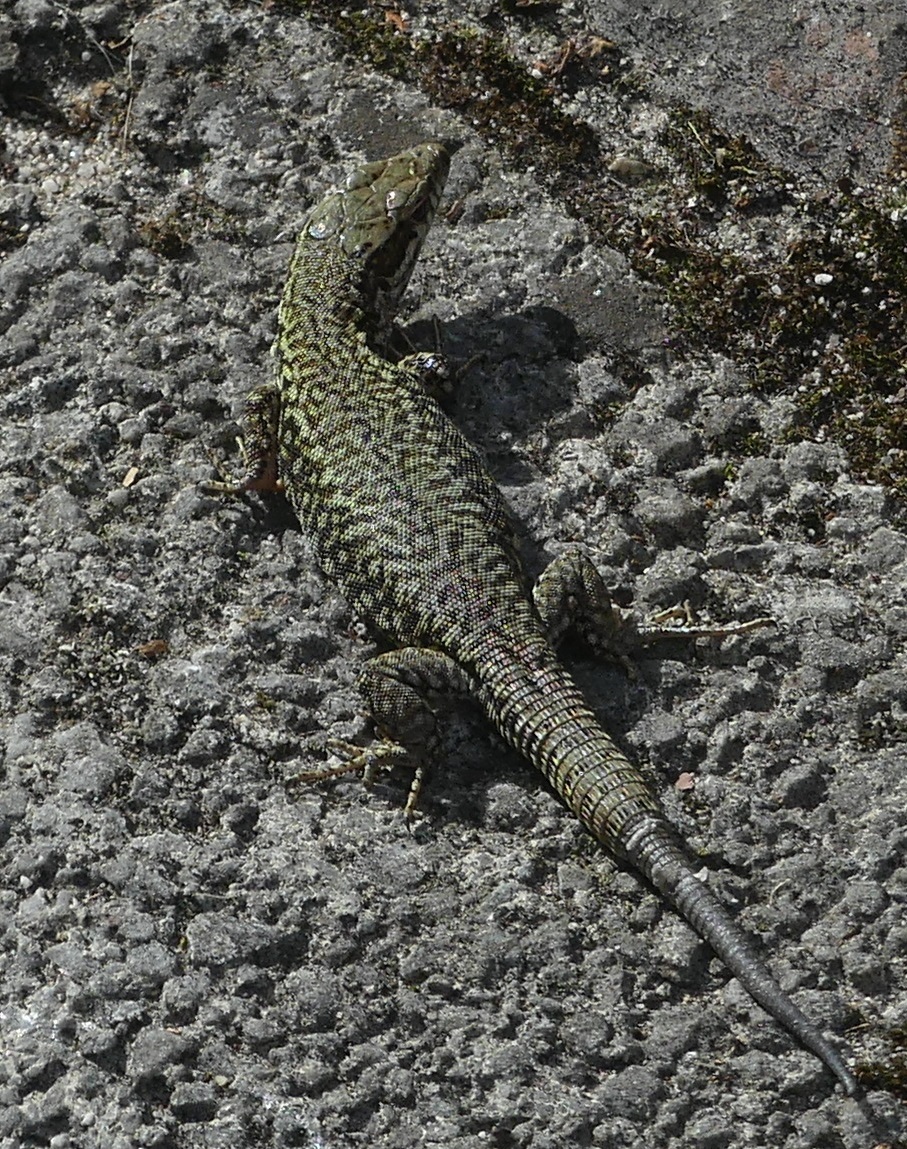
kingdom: Animalia
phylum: Chordata
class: Squamata
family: Lacertidae
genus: Podarcis
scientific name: Podarcis muralis
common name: Common wall lizard
